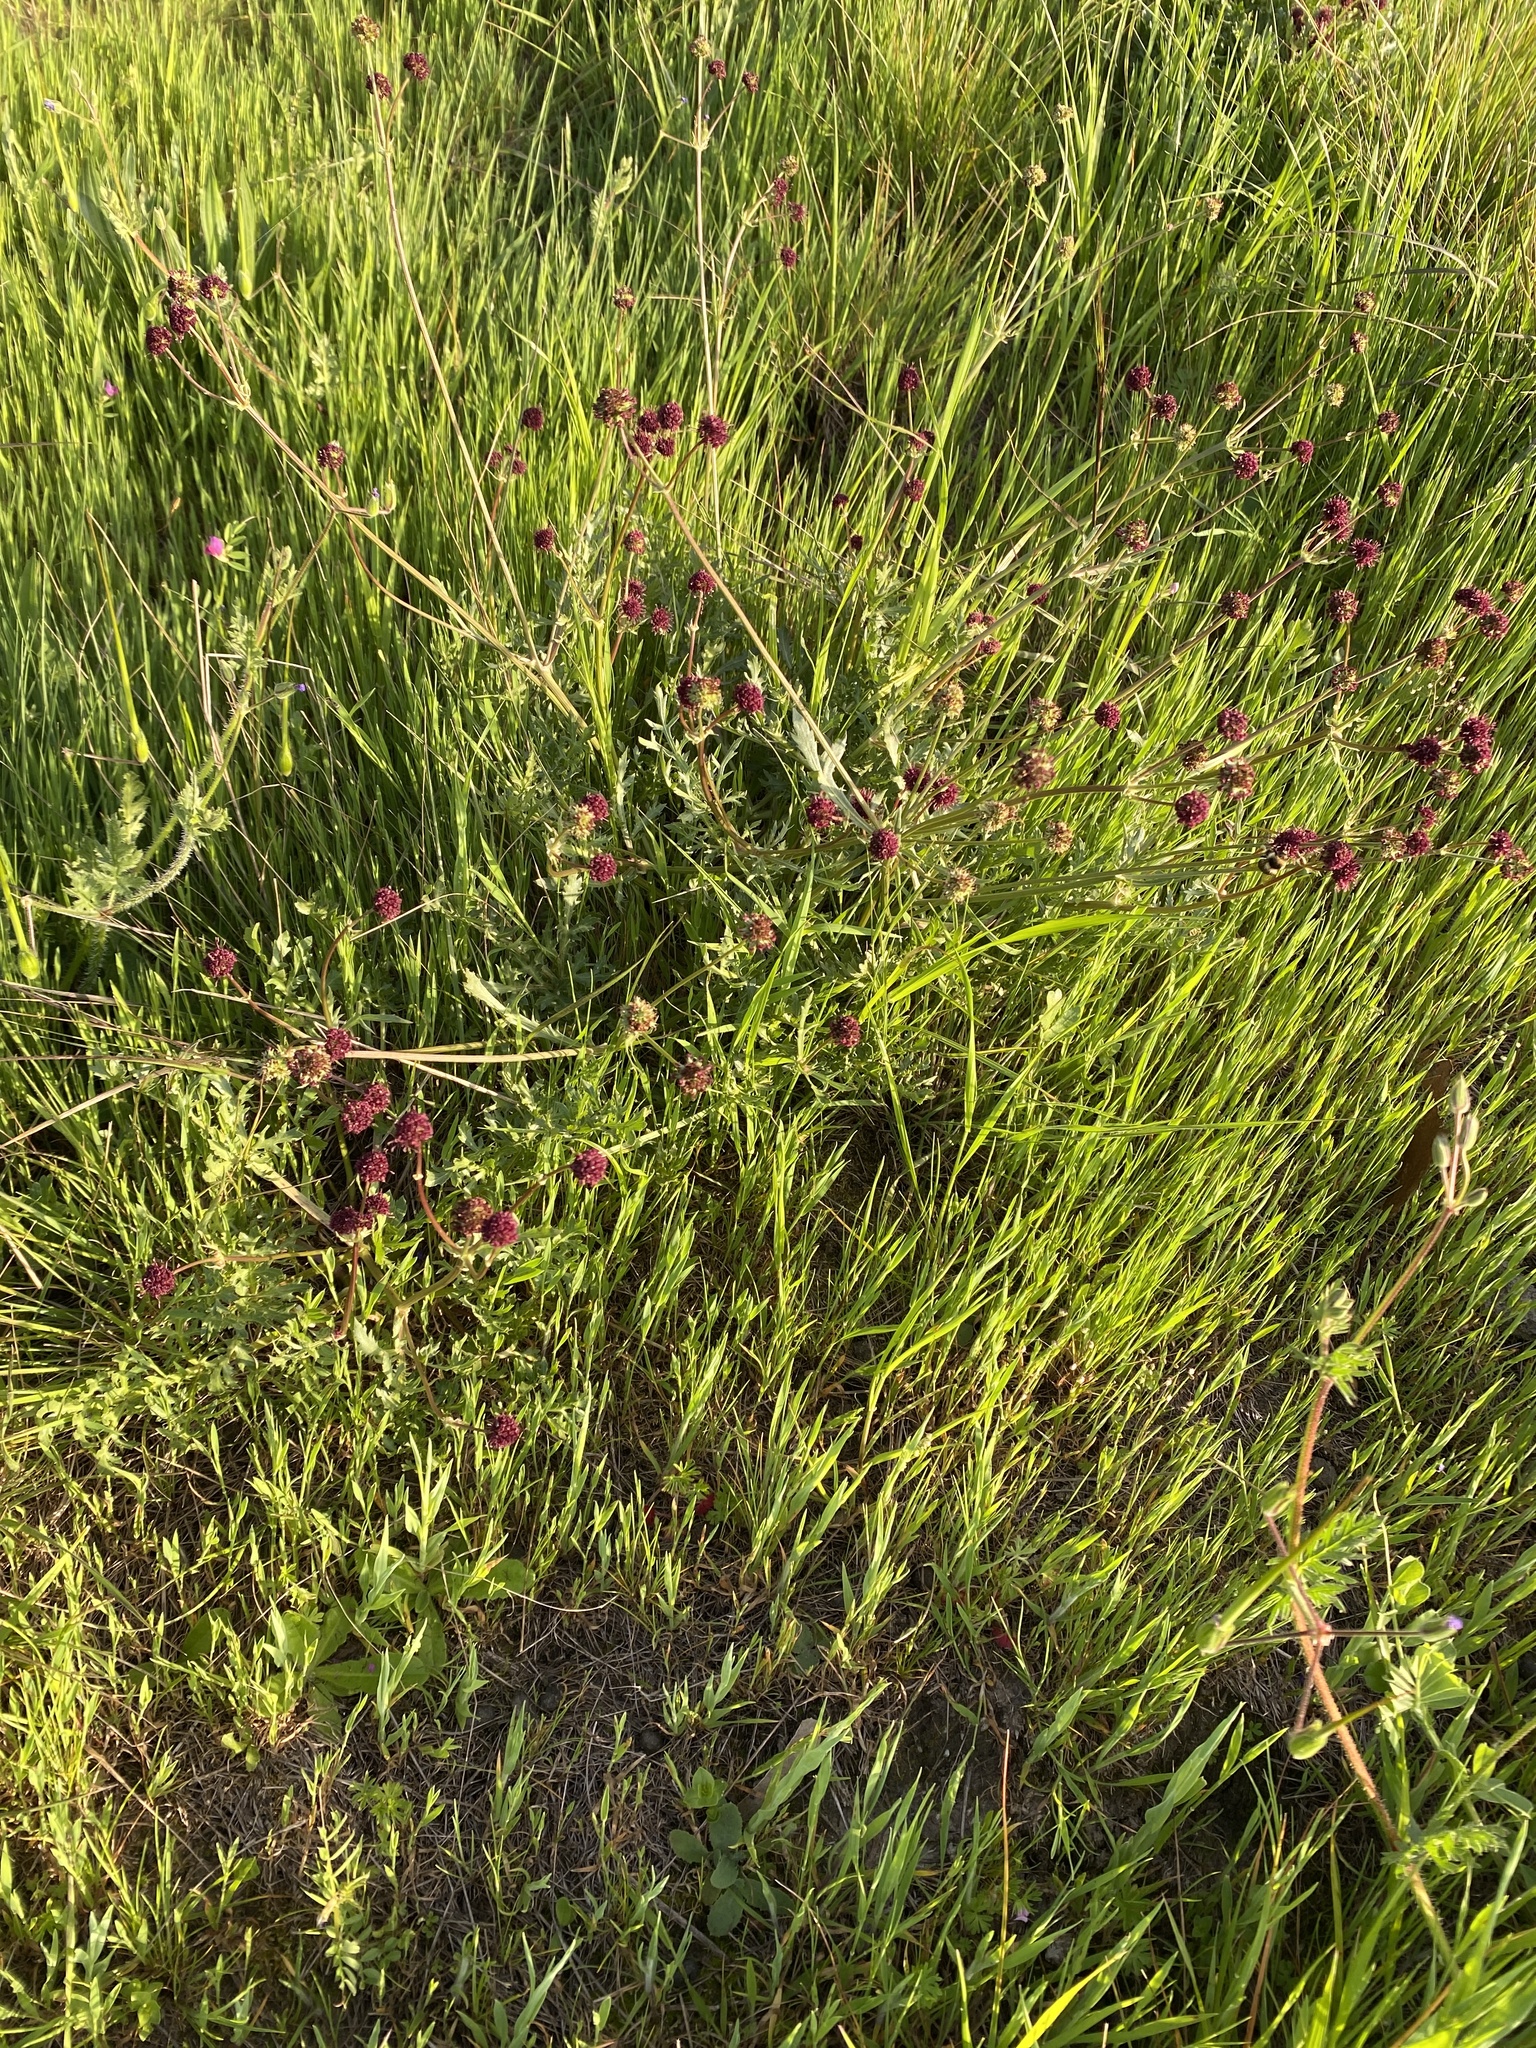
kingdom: Plantae
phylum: Tracheophyta
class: Magnoliopsida
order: Apiales
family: Apiaceae
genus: Sanicula
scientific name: Sanicula bipinnatifida
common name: Shoe-buttons
